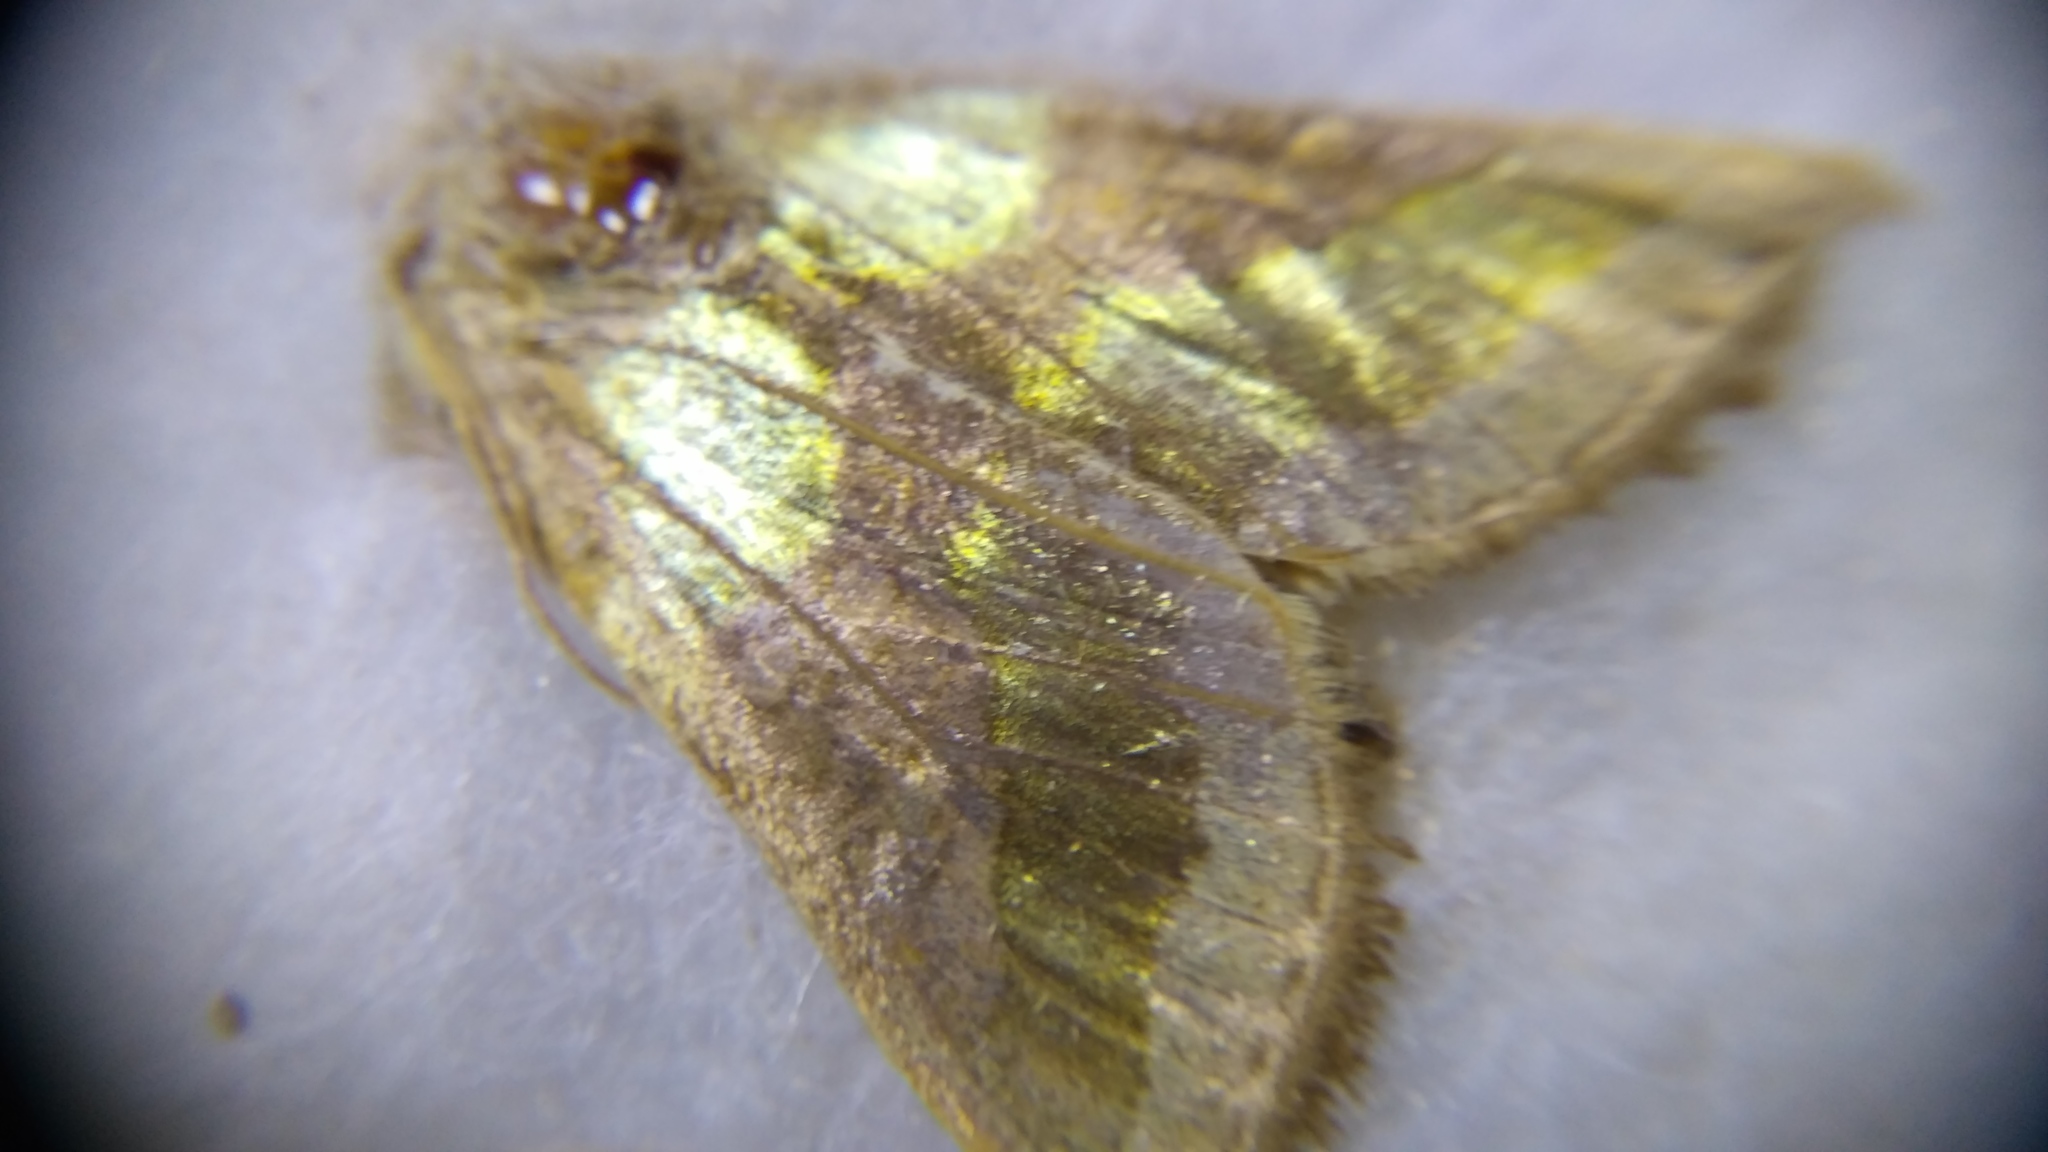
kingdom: Animalia
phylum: Arthropoda
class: Insecta
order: Lepidoptera
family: Noctuidae
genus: Diachrysia
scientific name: Diachrysia chrysitis
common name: Burnished brass
